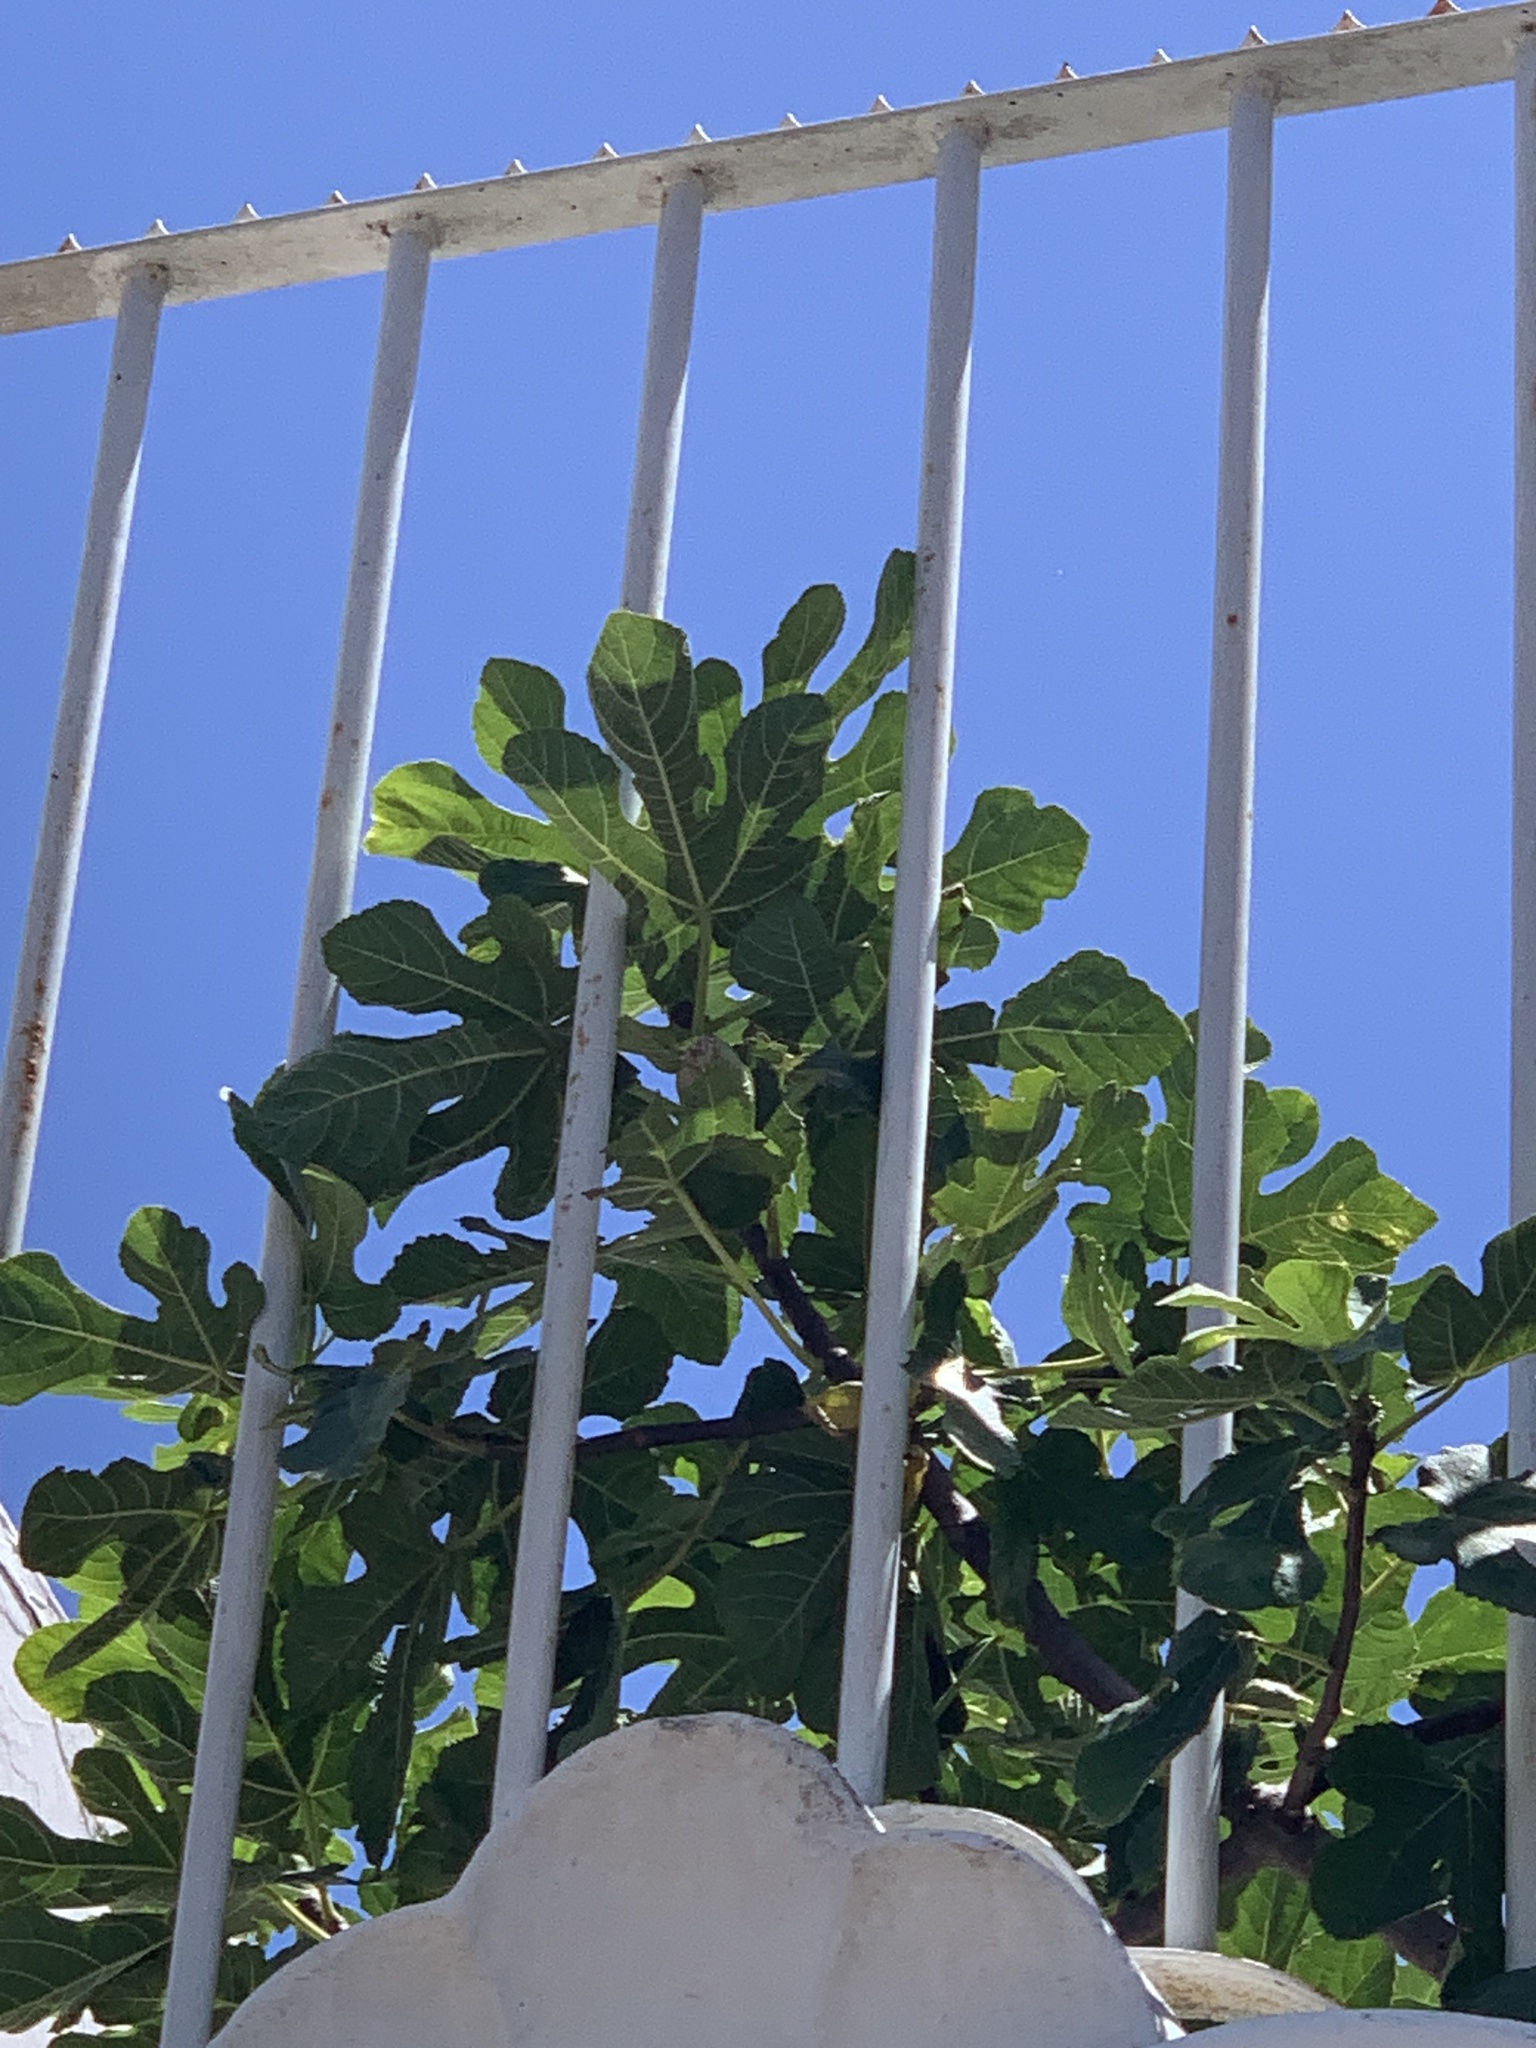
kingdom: Plantae
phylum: Tracheophyta
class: Magnoliopsida
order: Rosales
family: Moraceae
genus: Ficus
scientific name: Ficus carica
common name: Fig
